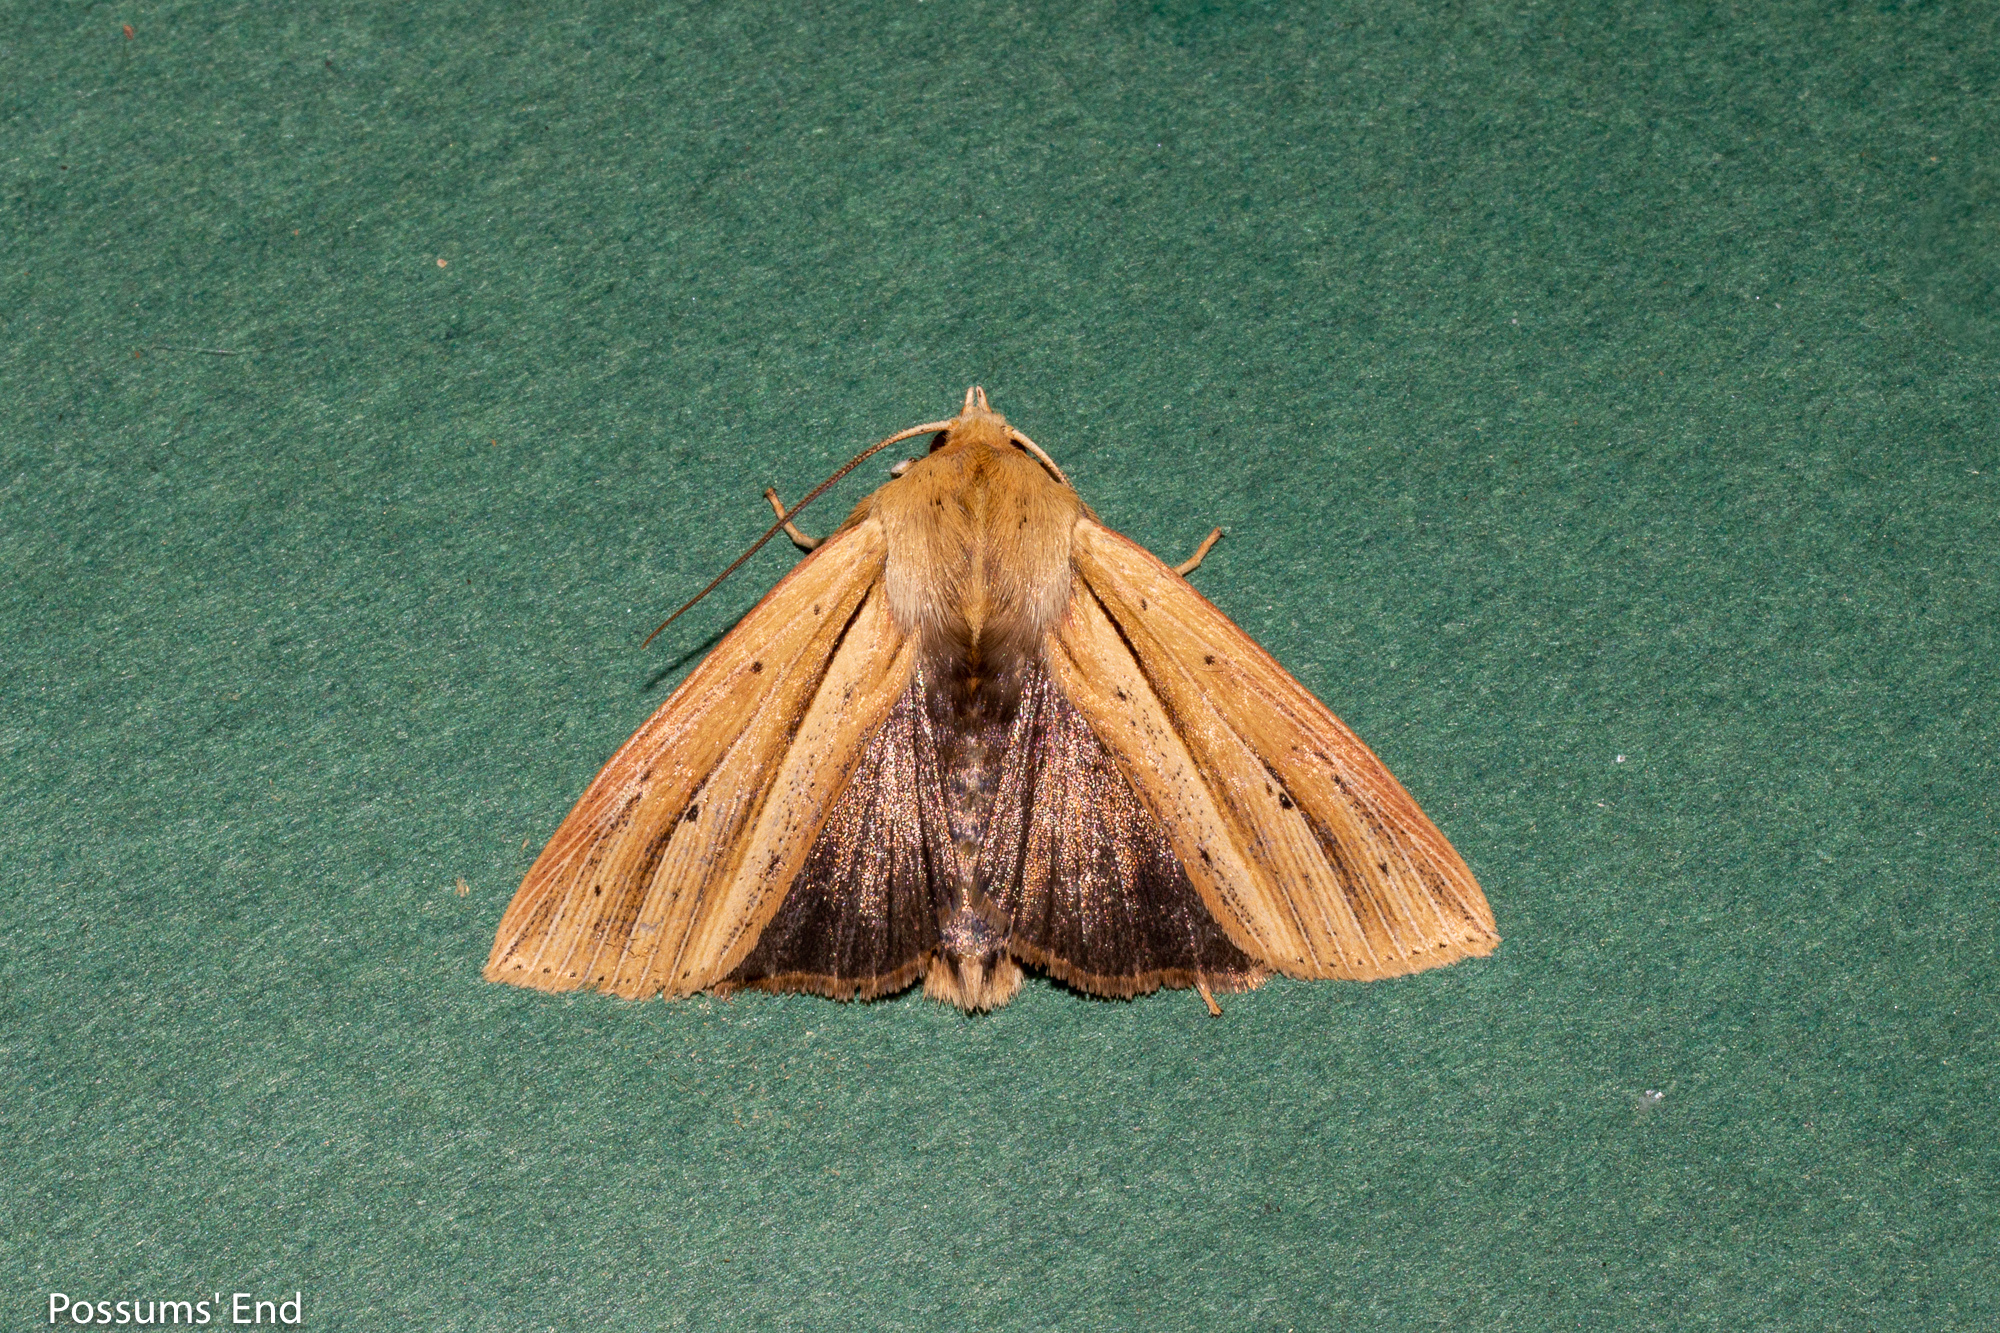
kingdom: Animalia
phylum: Arthropoda
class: Insecta
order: Lepidoptera
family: Noctuidae
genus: Ichneutica
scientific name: Ichneutica sulcana
